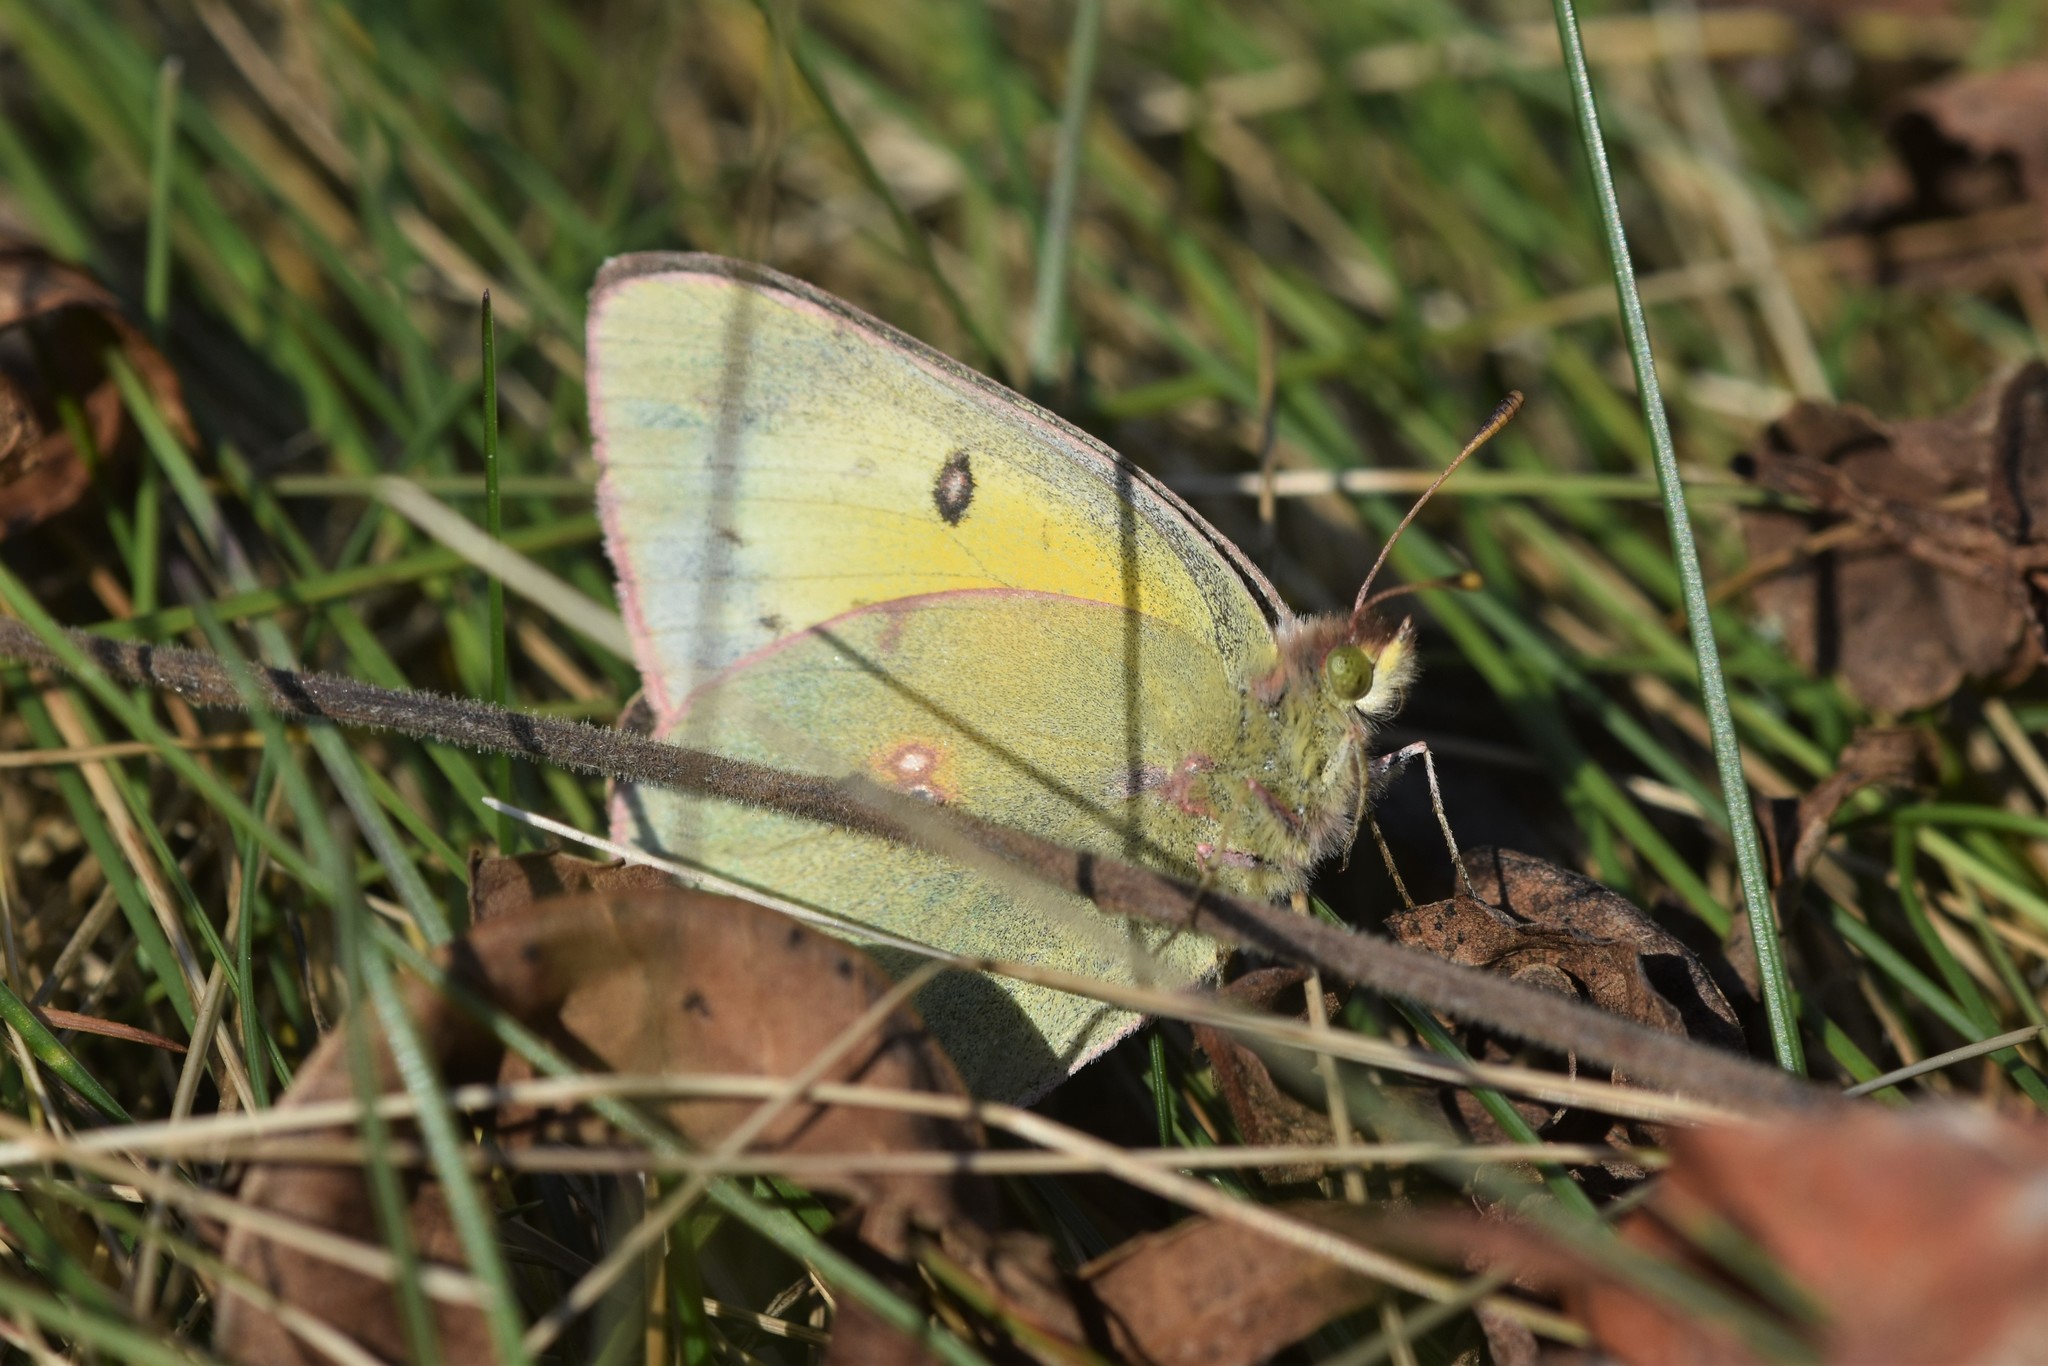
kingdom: Animalia
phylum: Arthropoda
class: Insecta
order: Lepidoptera
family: Pieridae
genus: Colias
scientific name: Colias philodice
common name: Clouded sulphur
